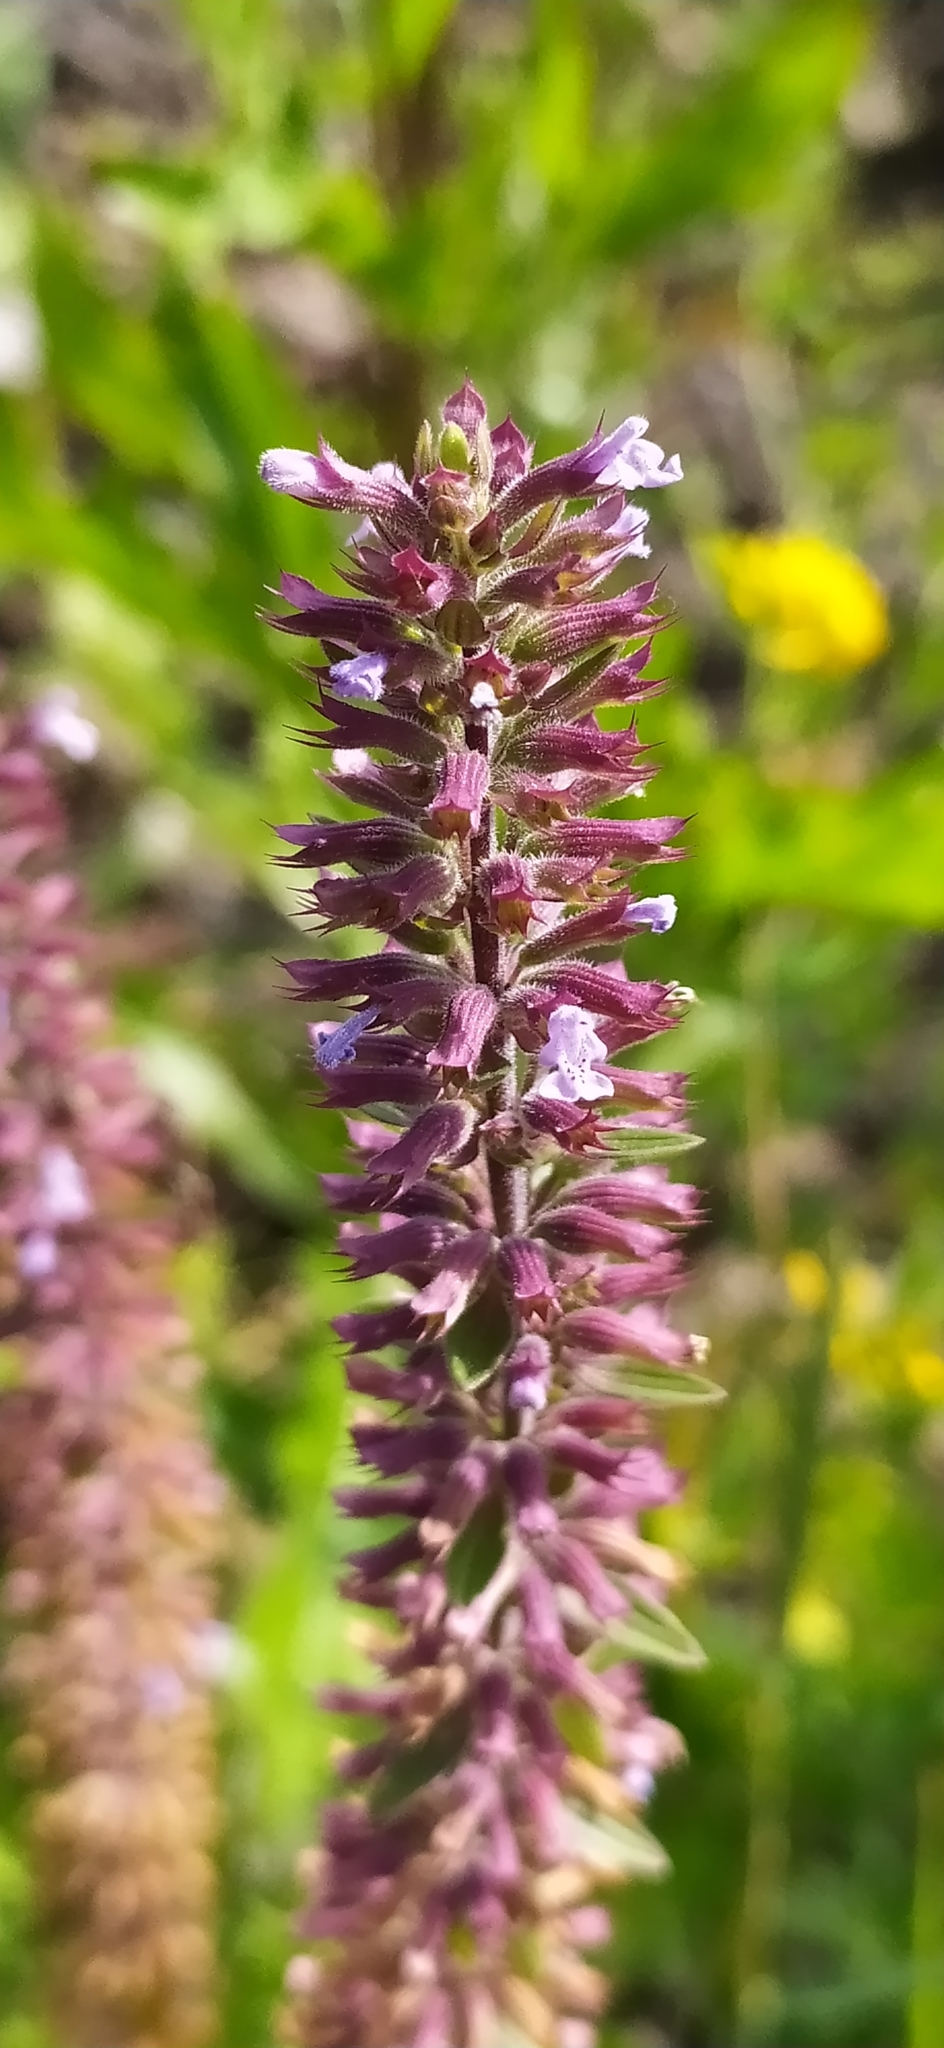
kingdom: Plantae
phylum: Tracheophyta
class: Magnoliopsida
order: Lamiales
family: Lamiaceae
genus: Dracocephalum
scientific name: Dracocephalum thymiflorum
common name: Thymeleaf dragonhead
